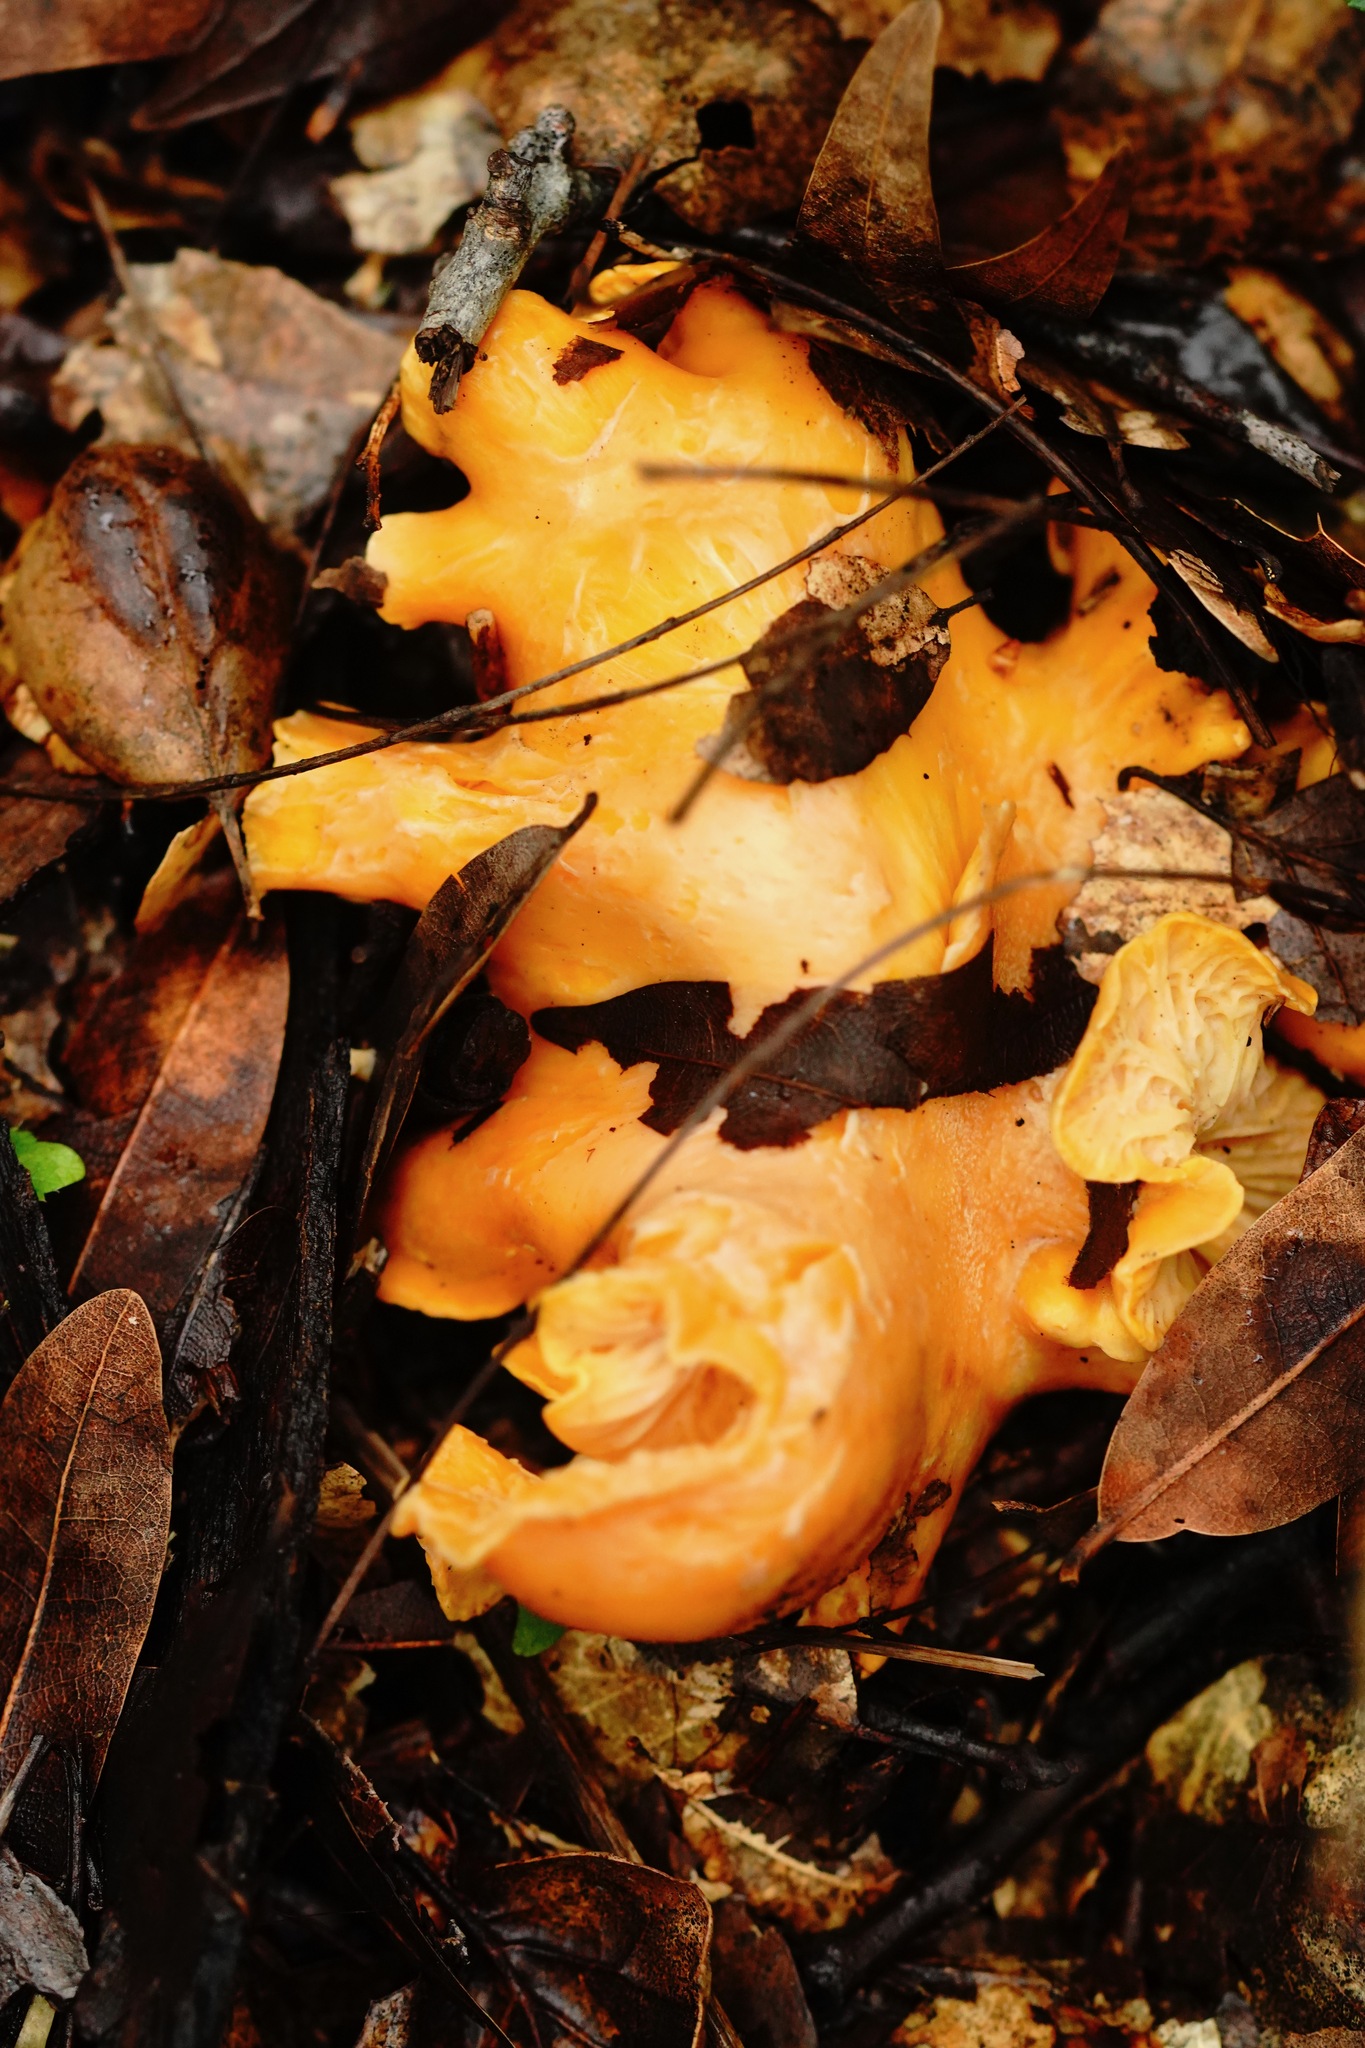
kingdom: Fungi
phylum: Basidiomycota
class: Agaricomycetes
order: Cantharellales
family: Hydnaceae
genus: Cantharellus
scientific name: Cantharellus californicus
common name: California golden chanterelle
